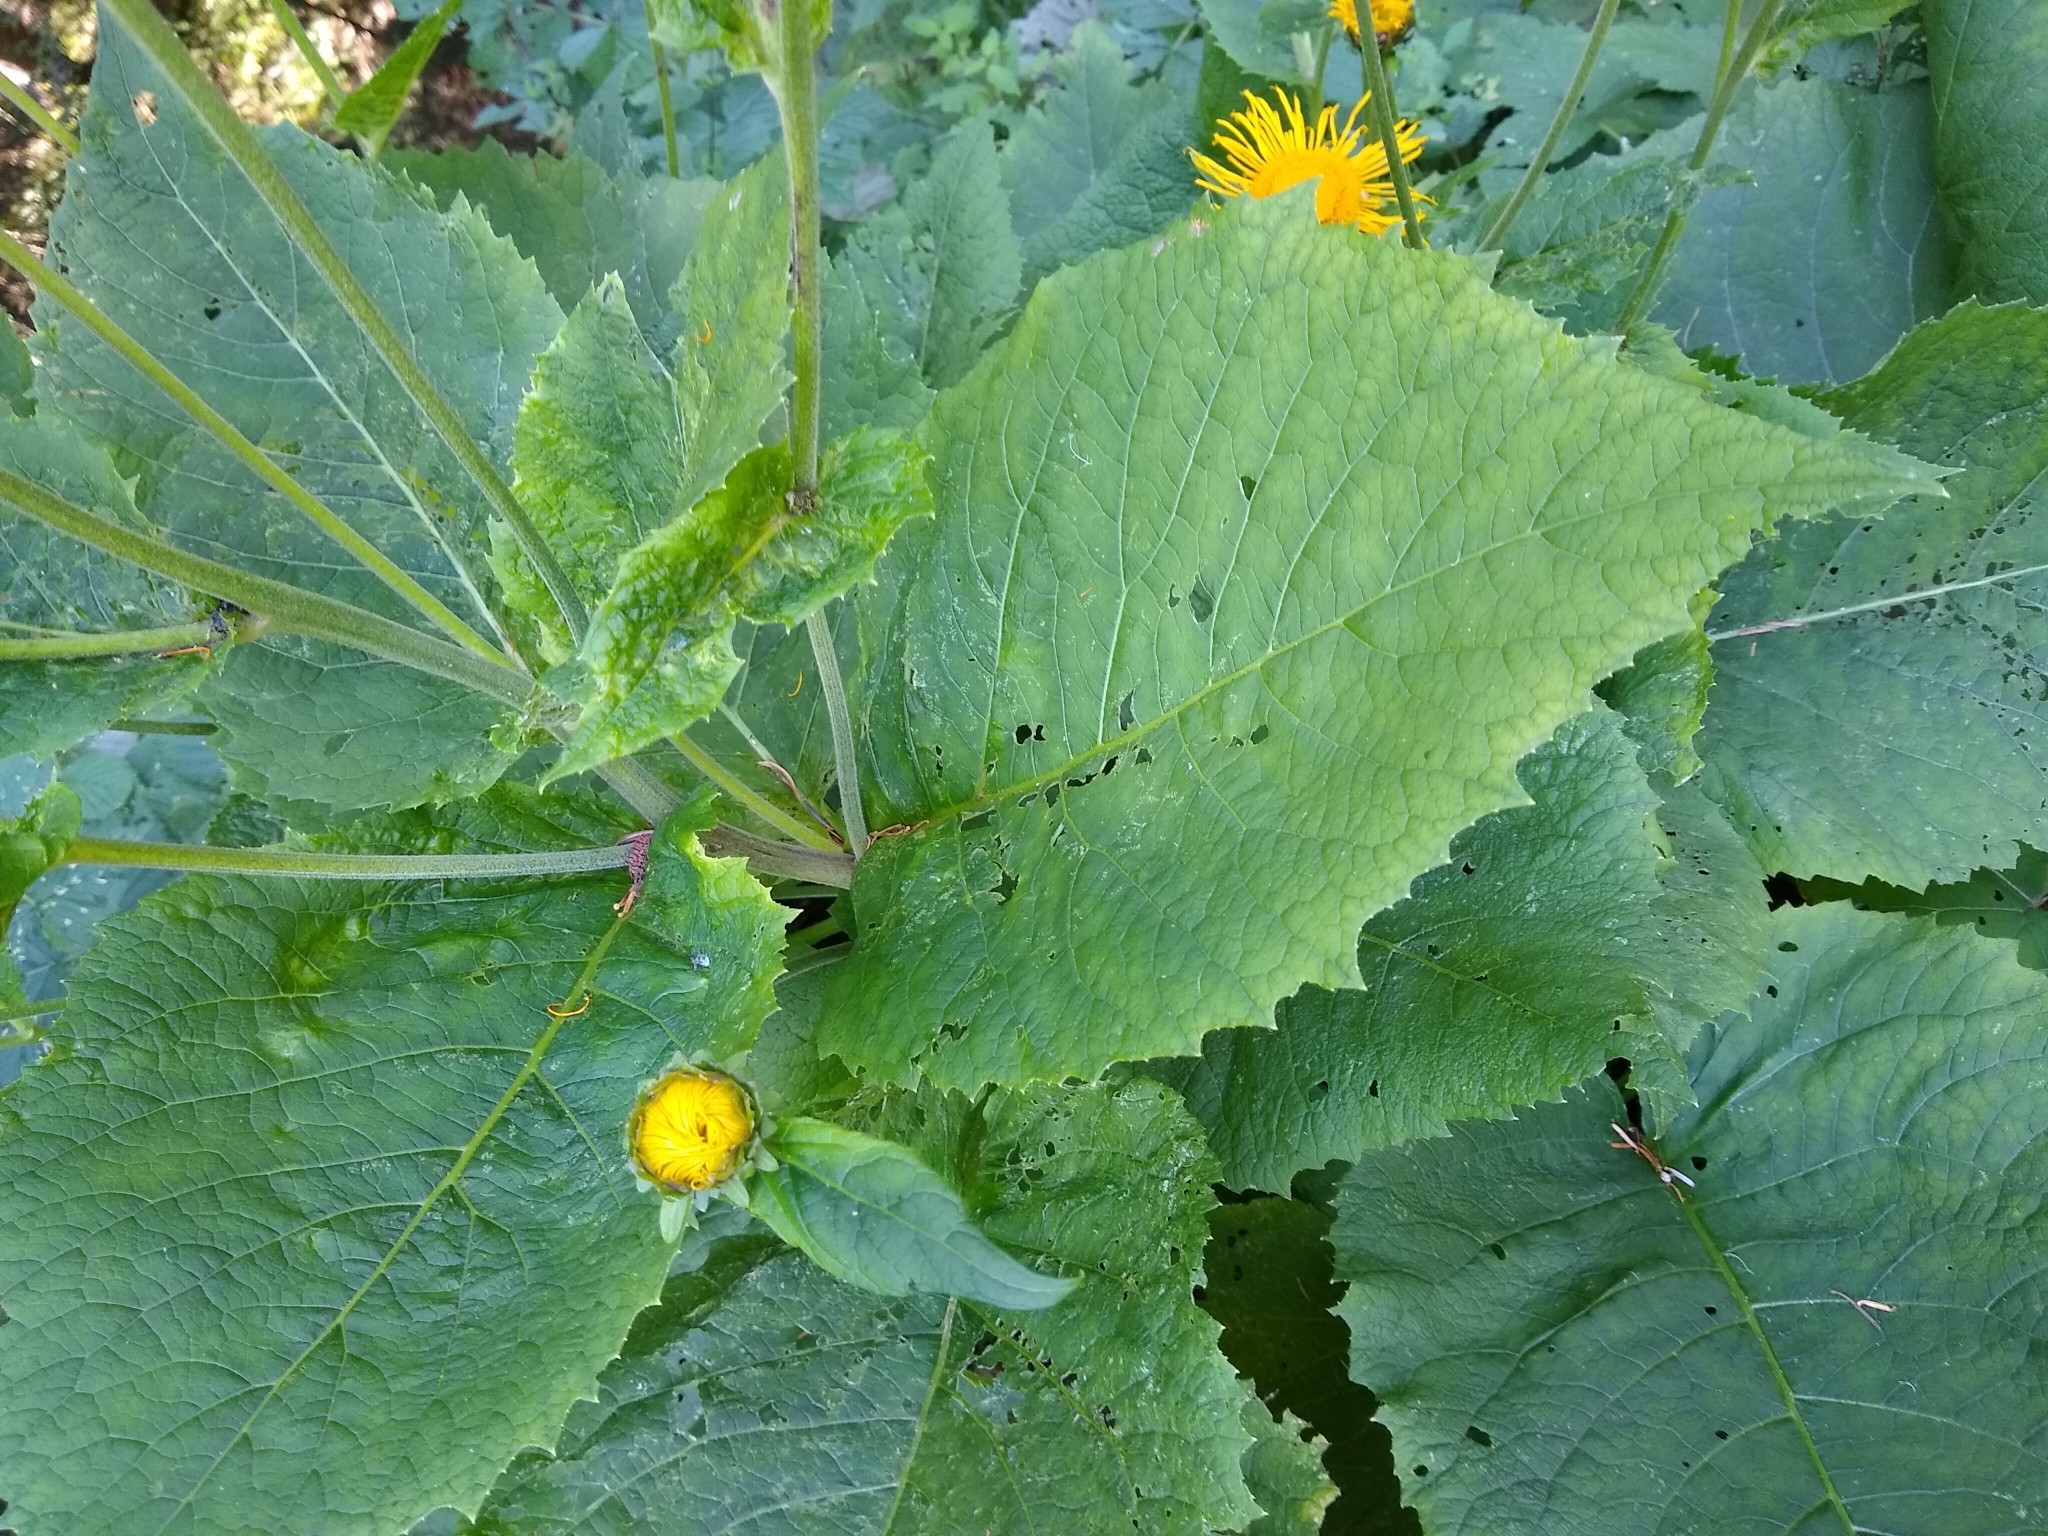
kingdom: Plantae
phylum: Tracheophyta
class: Magnoliopsida
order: Asterales
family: Asteraceae
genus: Telekia
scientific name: Telekia speciosa
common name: Yellow oxeye
